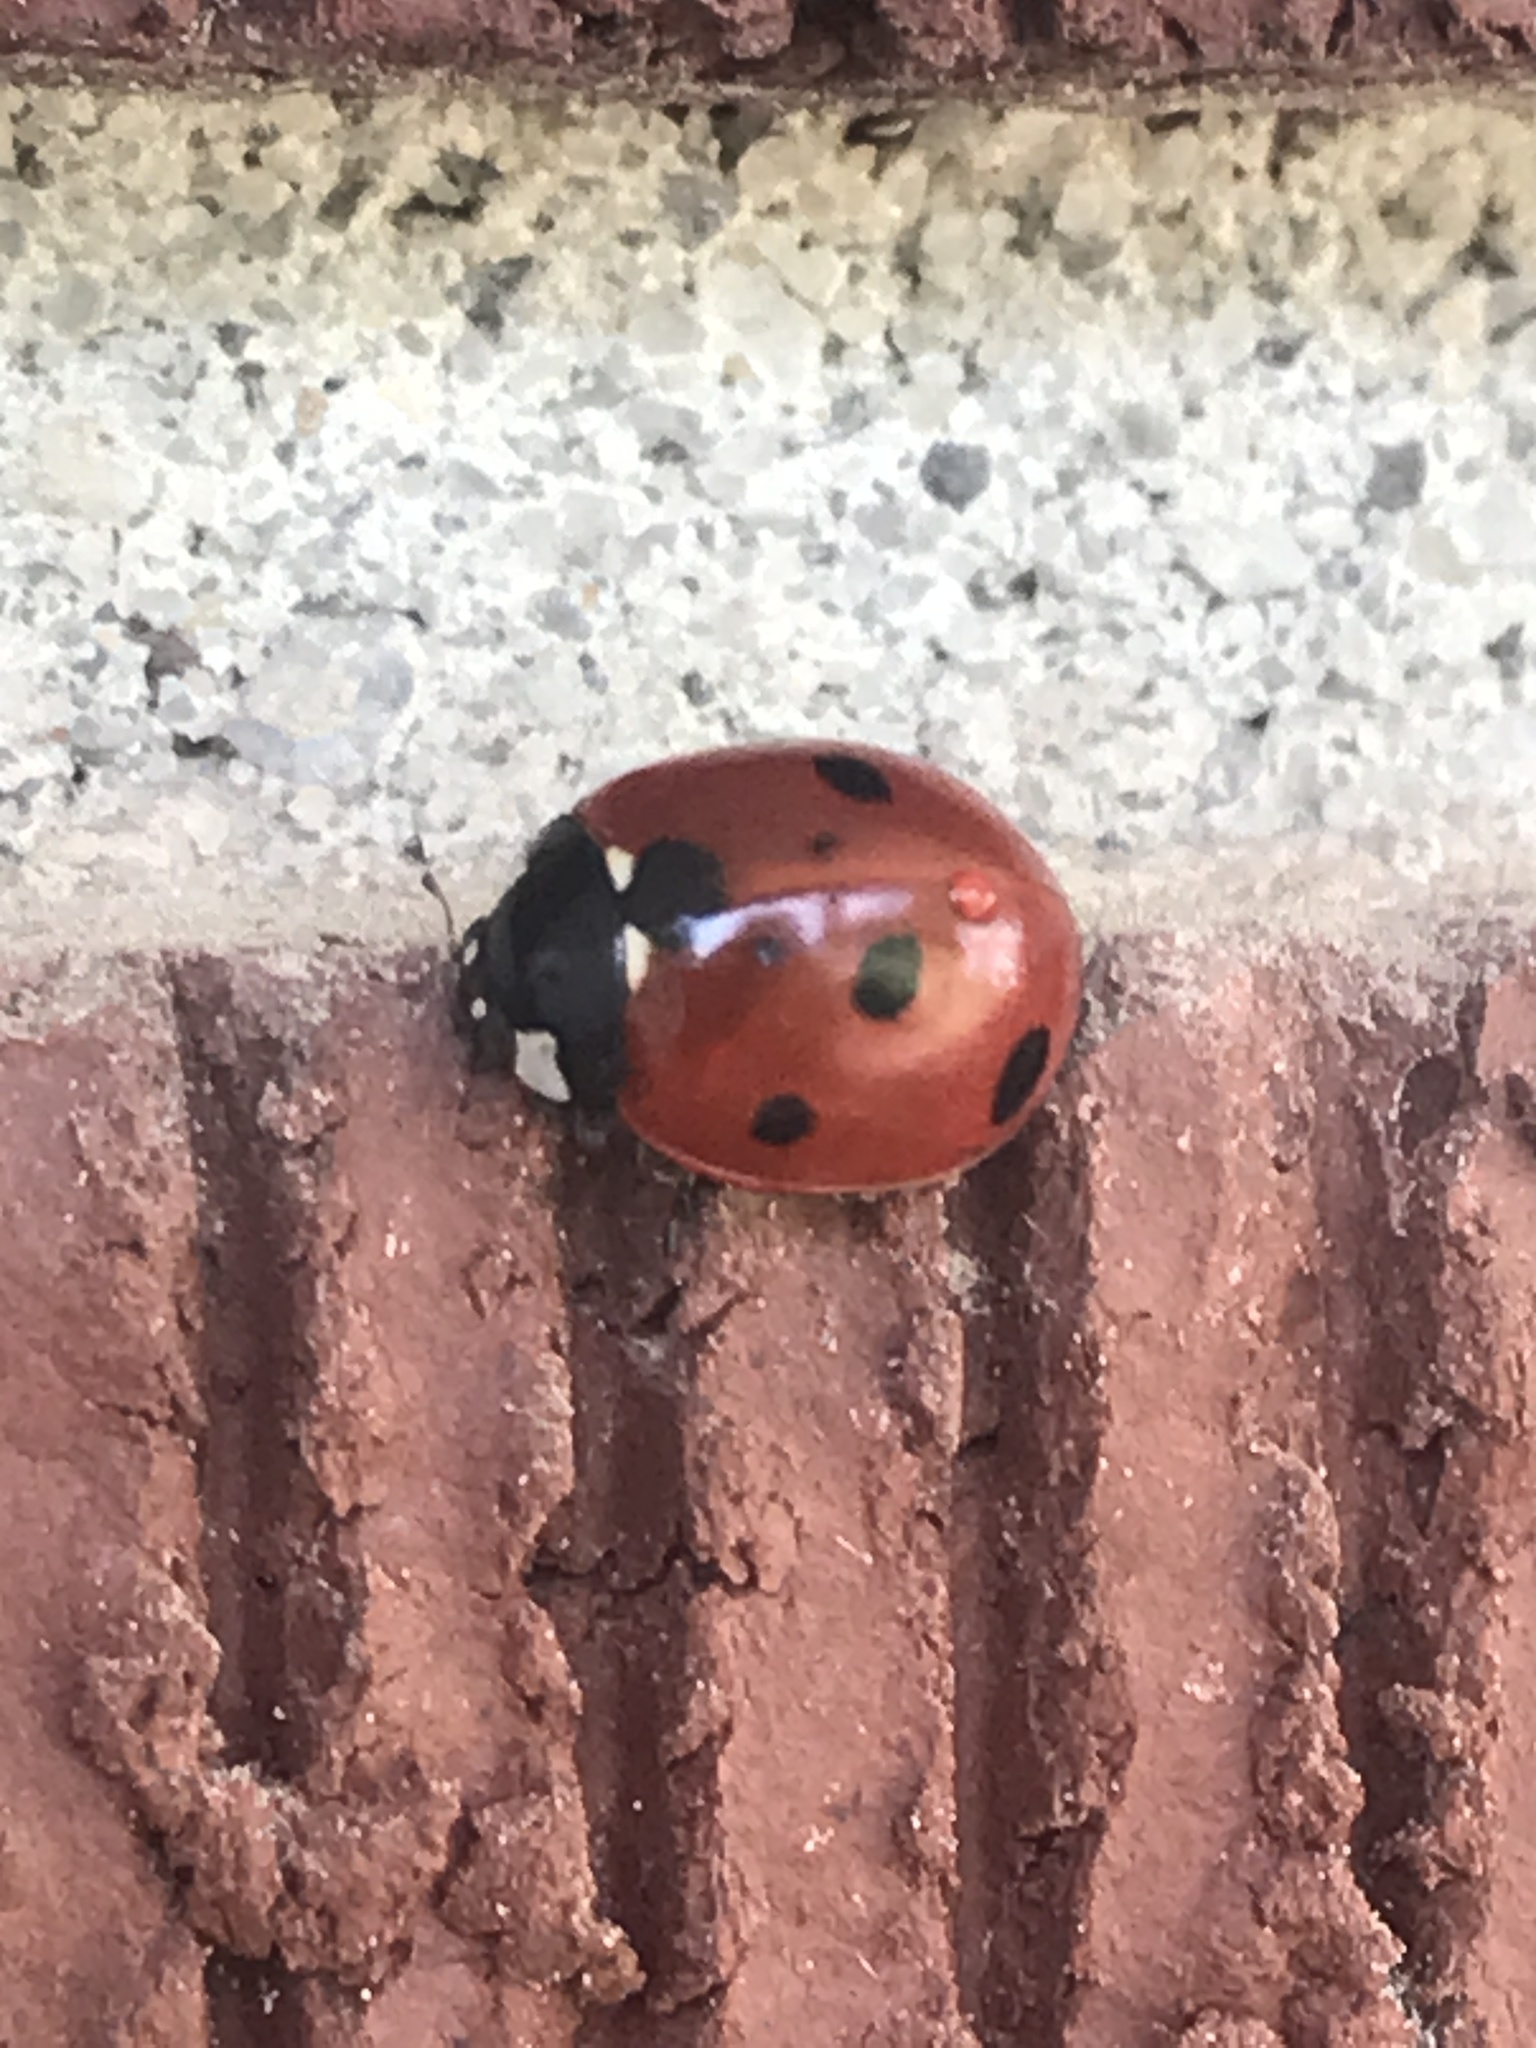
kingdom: Animalia
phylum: Arthropoda
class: Insecta
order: Coleoptera
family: Coccinellidae
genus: Coccinella
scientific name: Coccinella septempunctata
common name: Sevenspotted lady beetle
